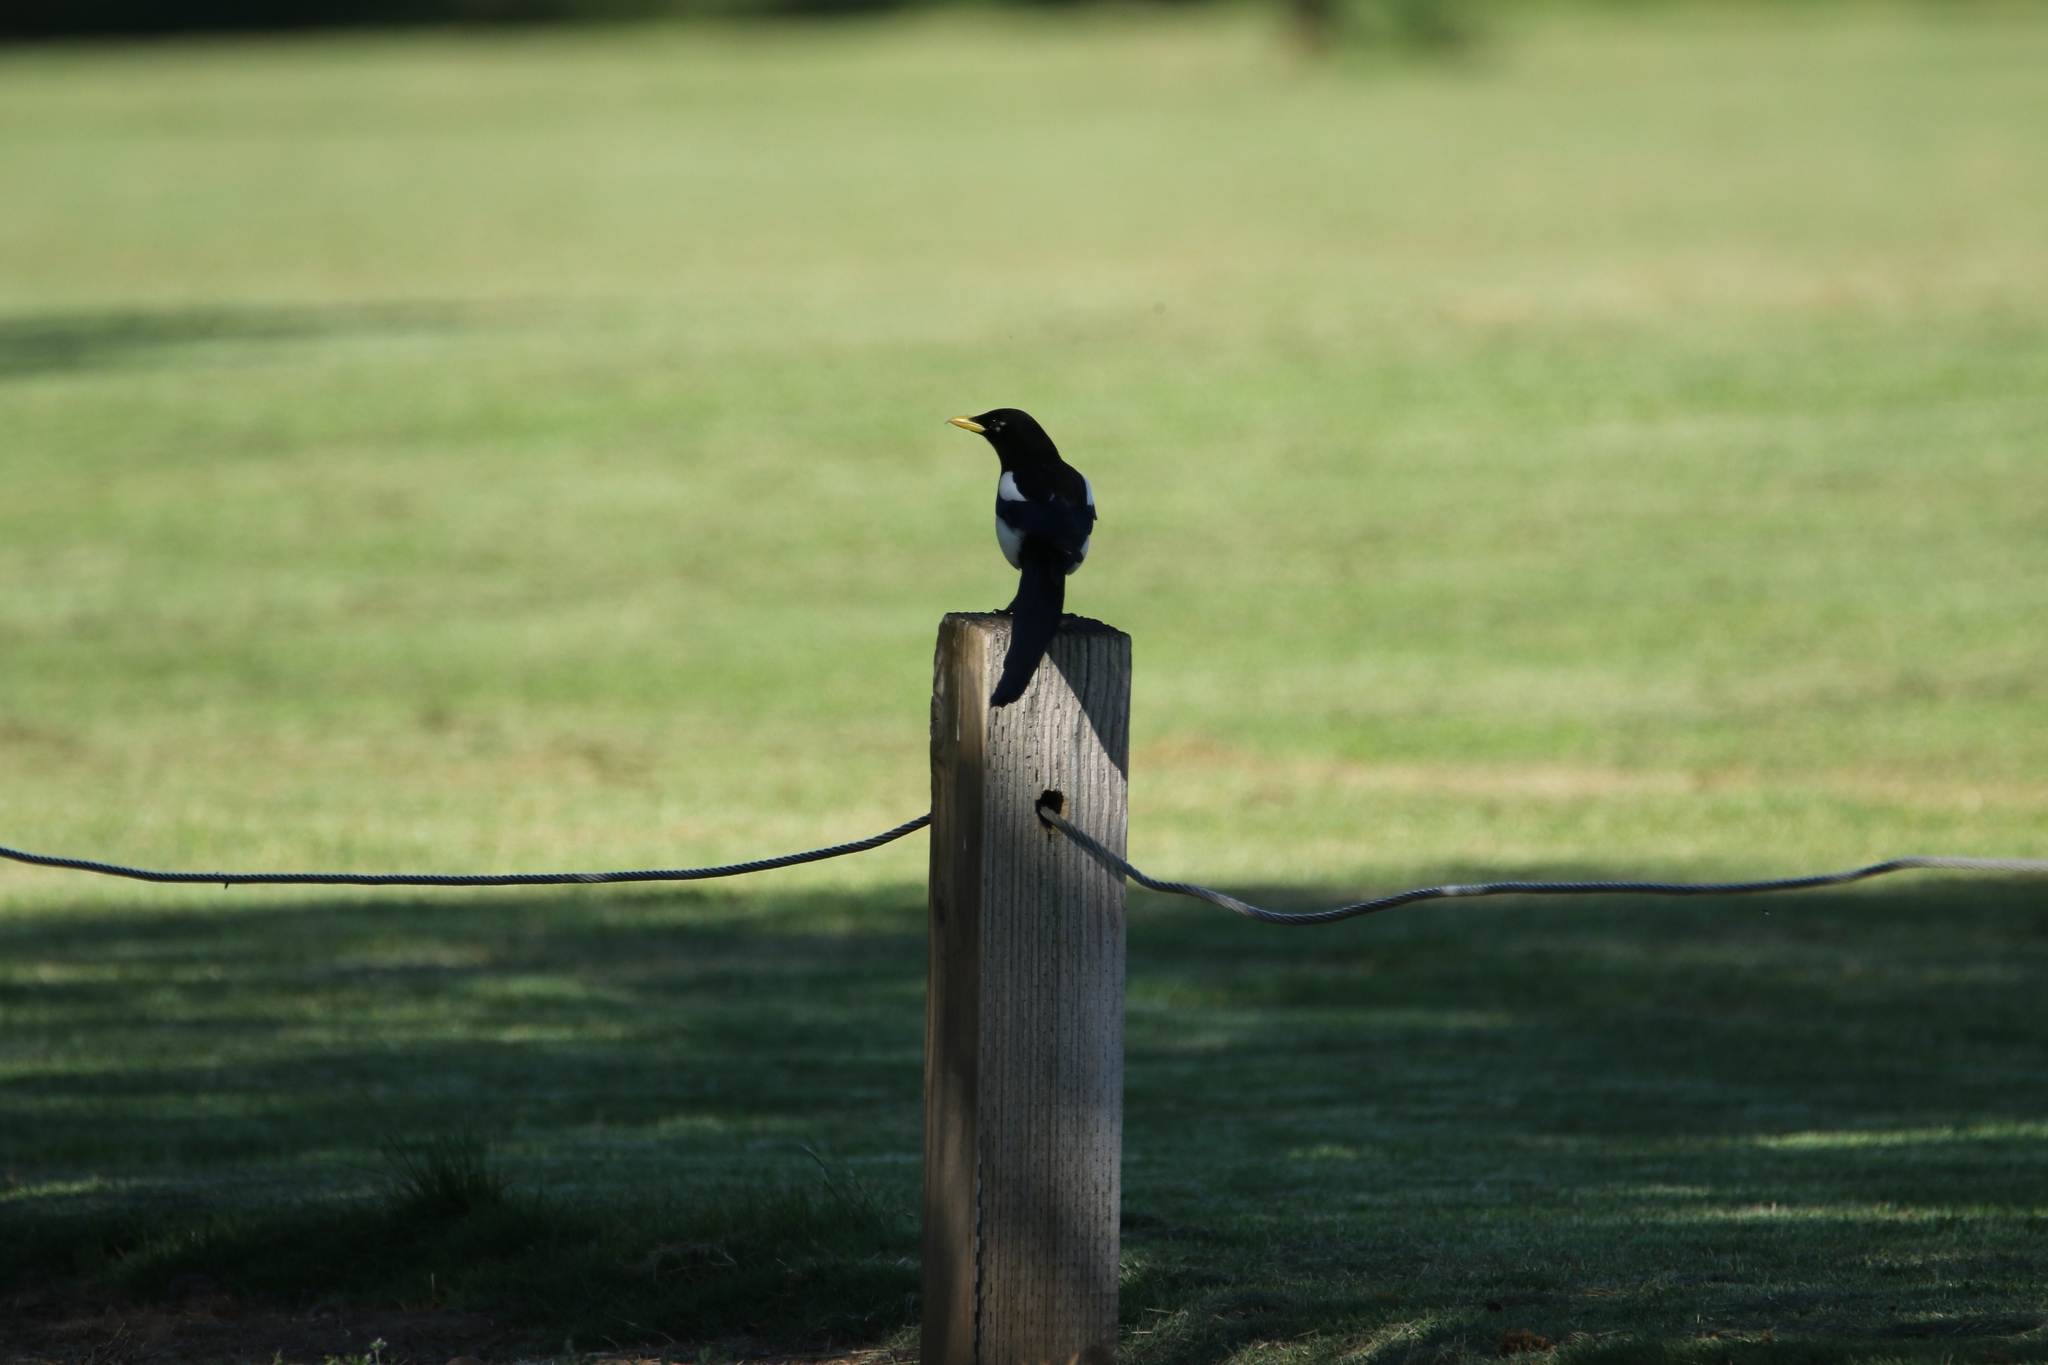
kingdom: Animalia
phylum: Chordata
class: Aves
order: Passeriformes
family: Corvidae
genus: Pica
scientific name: Pica nuttalli
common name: Yellow-billed magpie
